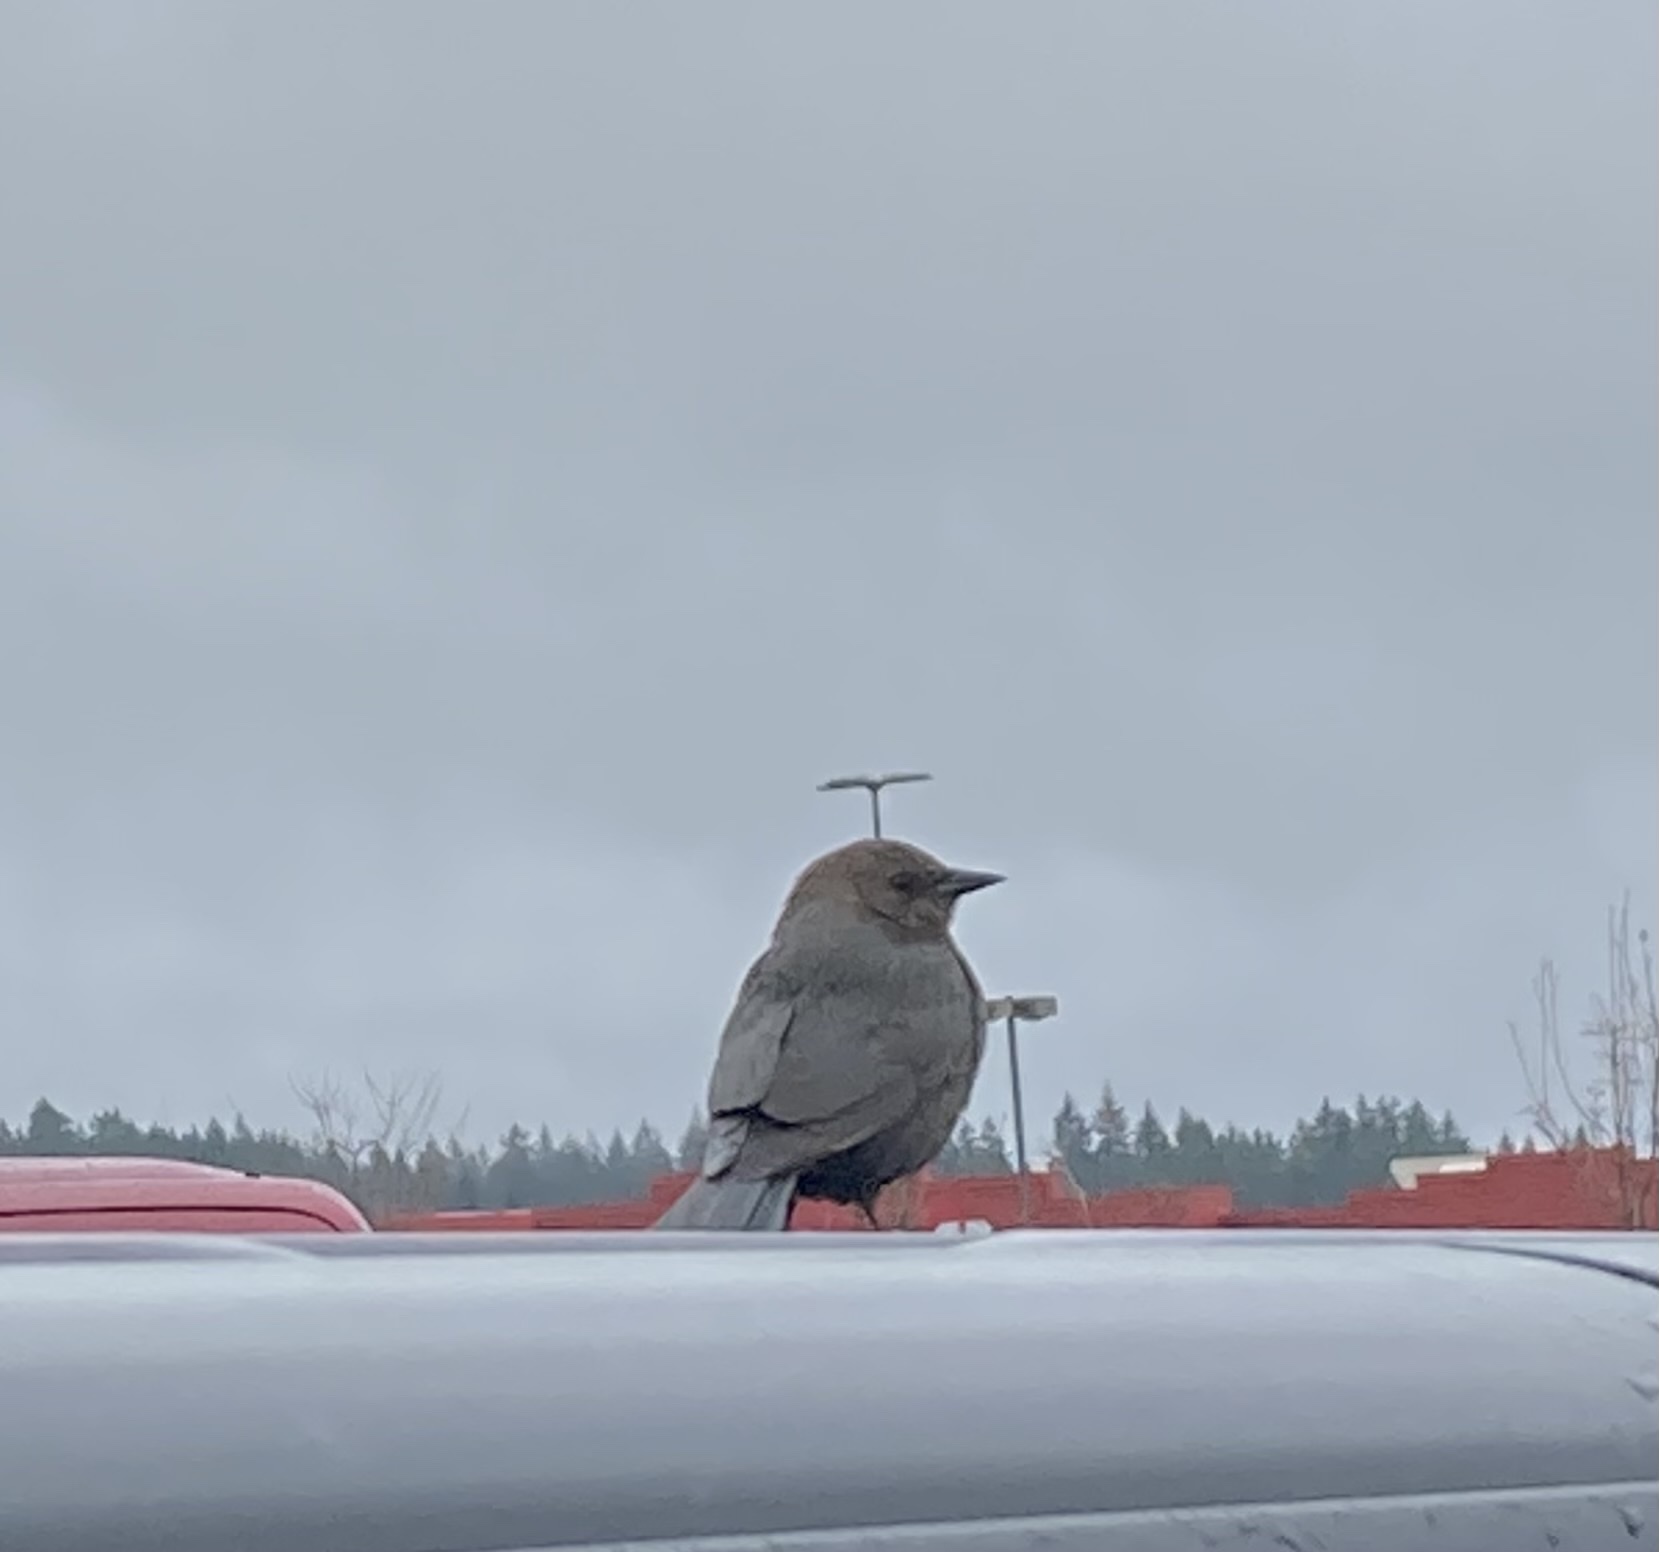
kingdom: Animalia
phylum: Chordata
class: Aves
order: Passeriformes
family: Icteridae
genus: Euphagus
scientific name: Euphagus cyanocephalus
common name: Brewer's blackbird
